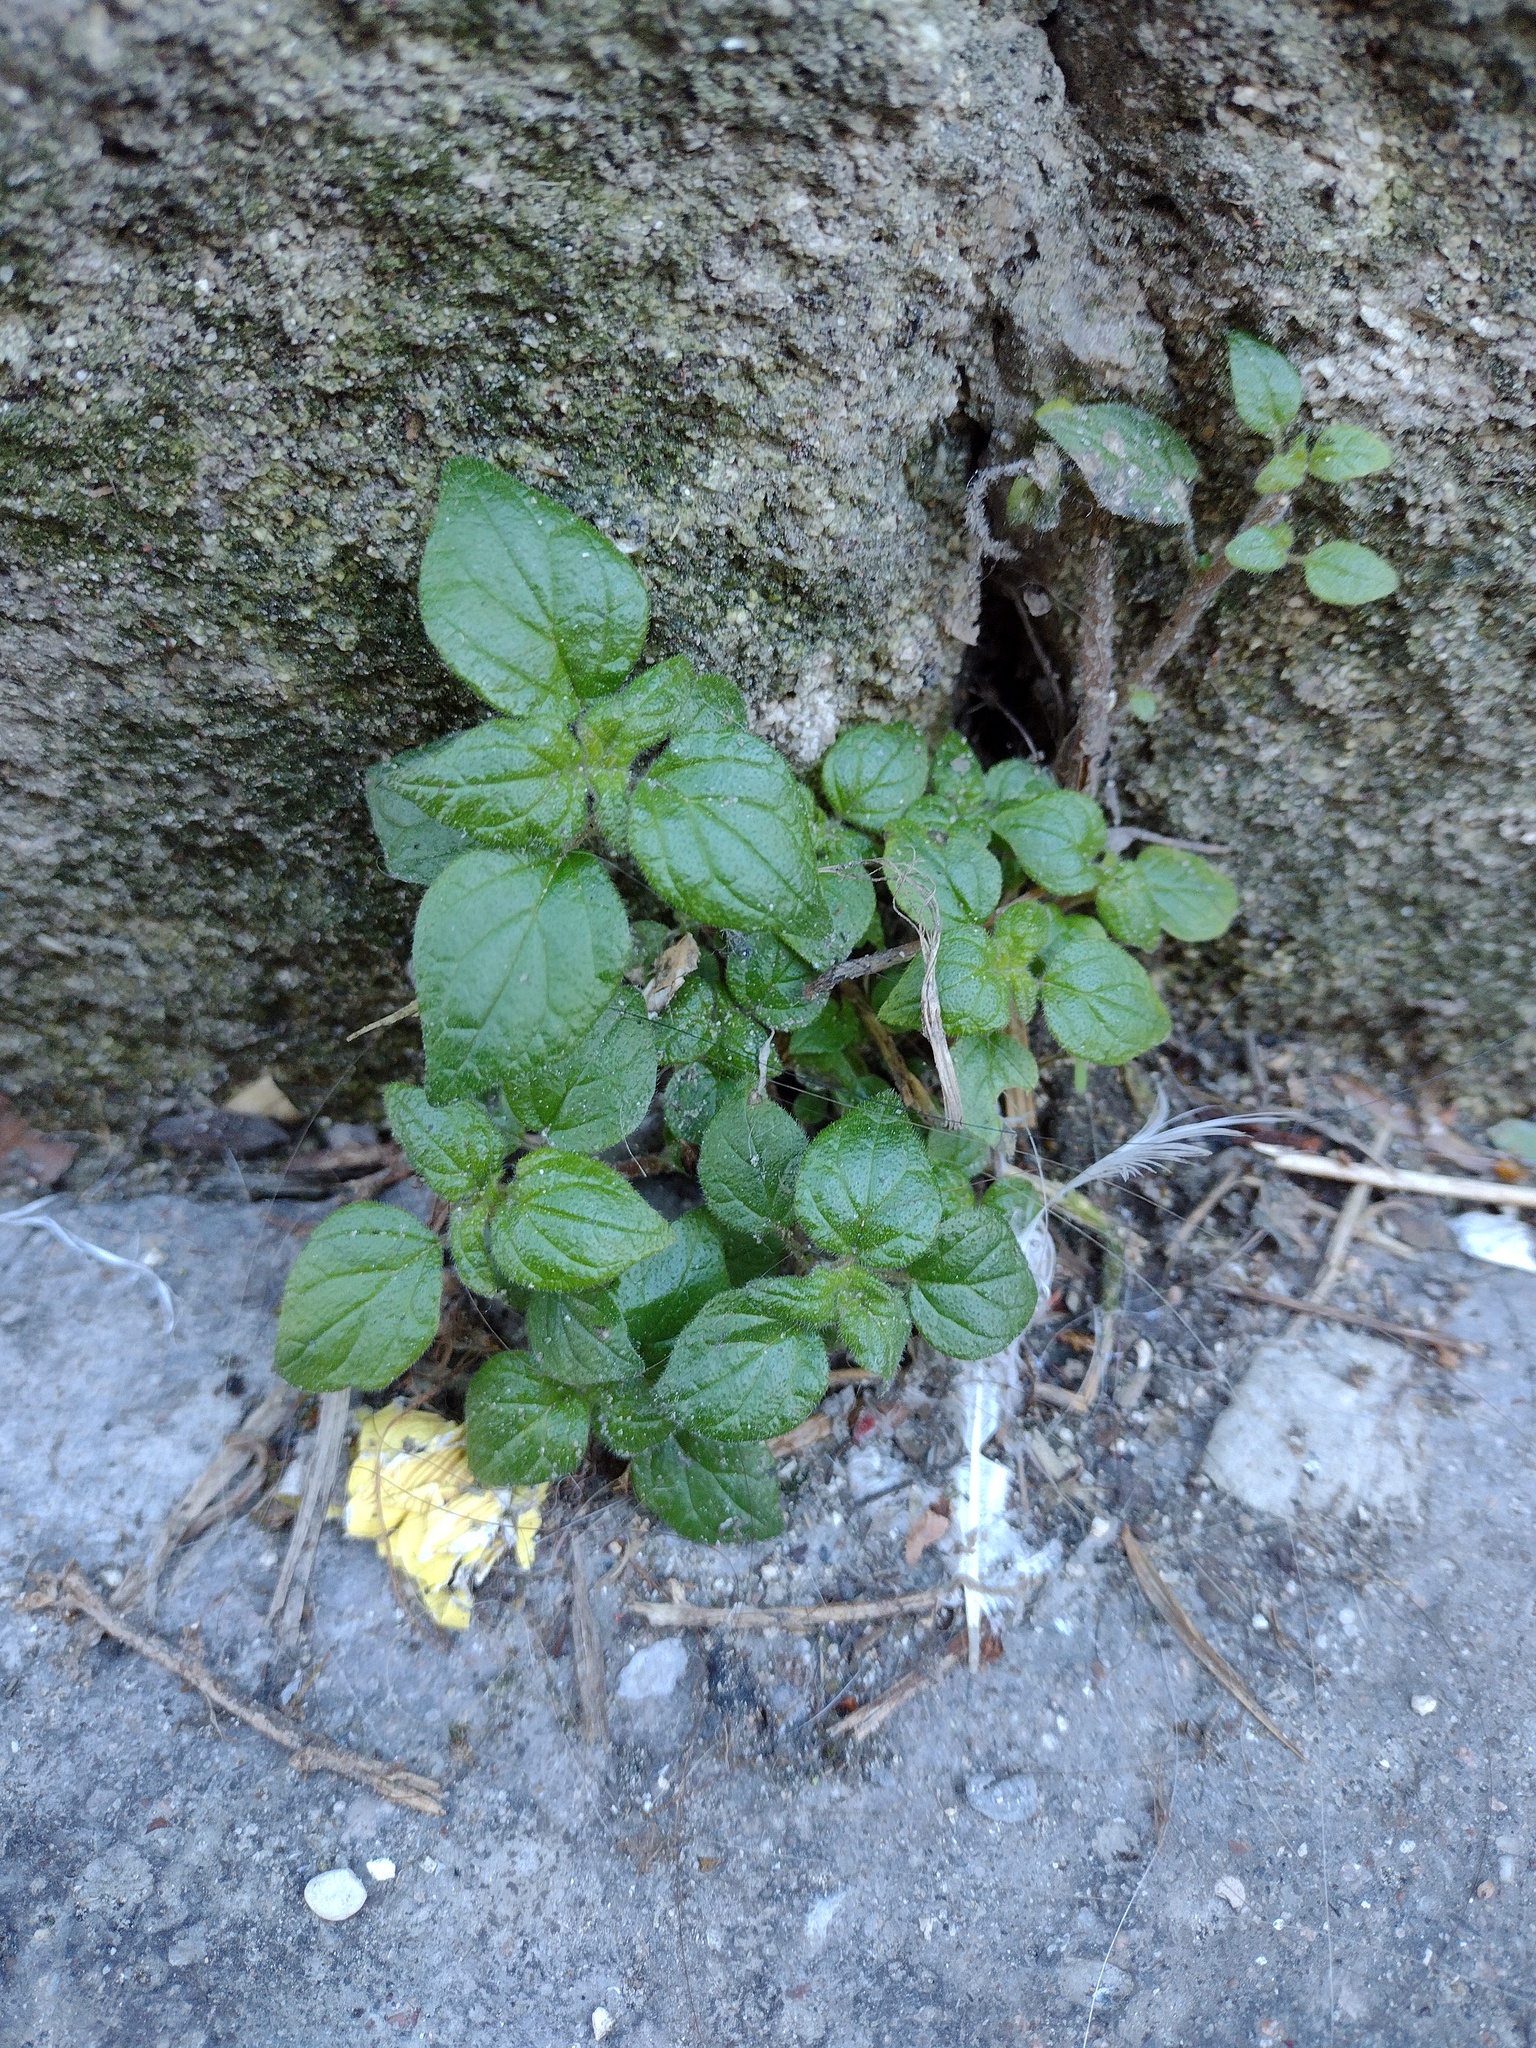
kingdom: Plantae
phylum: Tracheophyta
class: Magnoliopsida
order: Rosales
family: Urticaceae
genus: Parietaria
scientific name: Parietaria judaica
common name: Pellitory-of-the-wall
